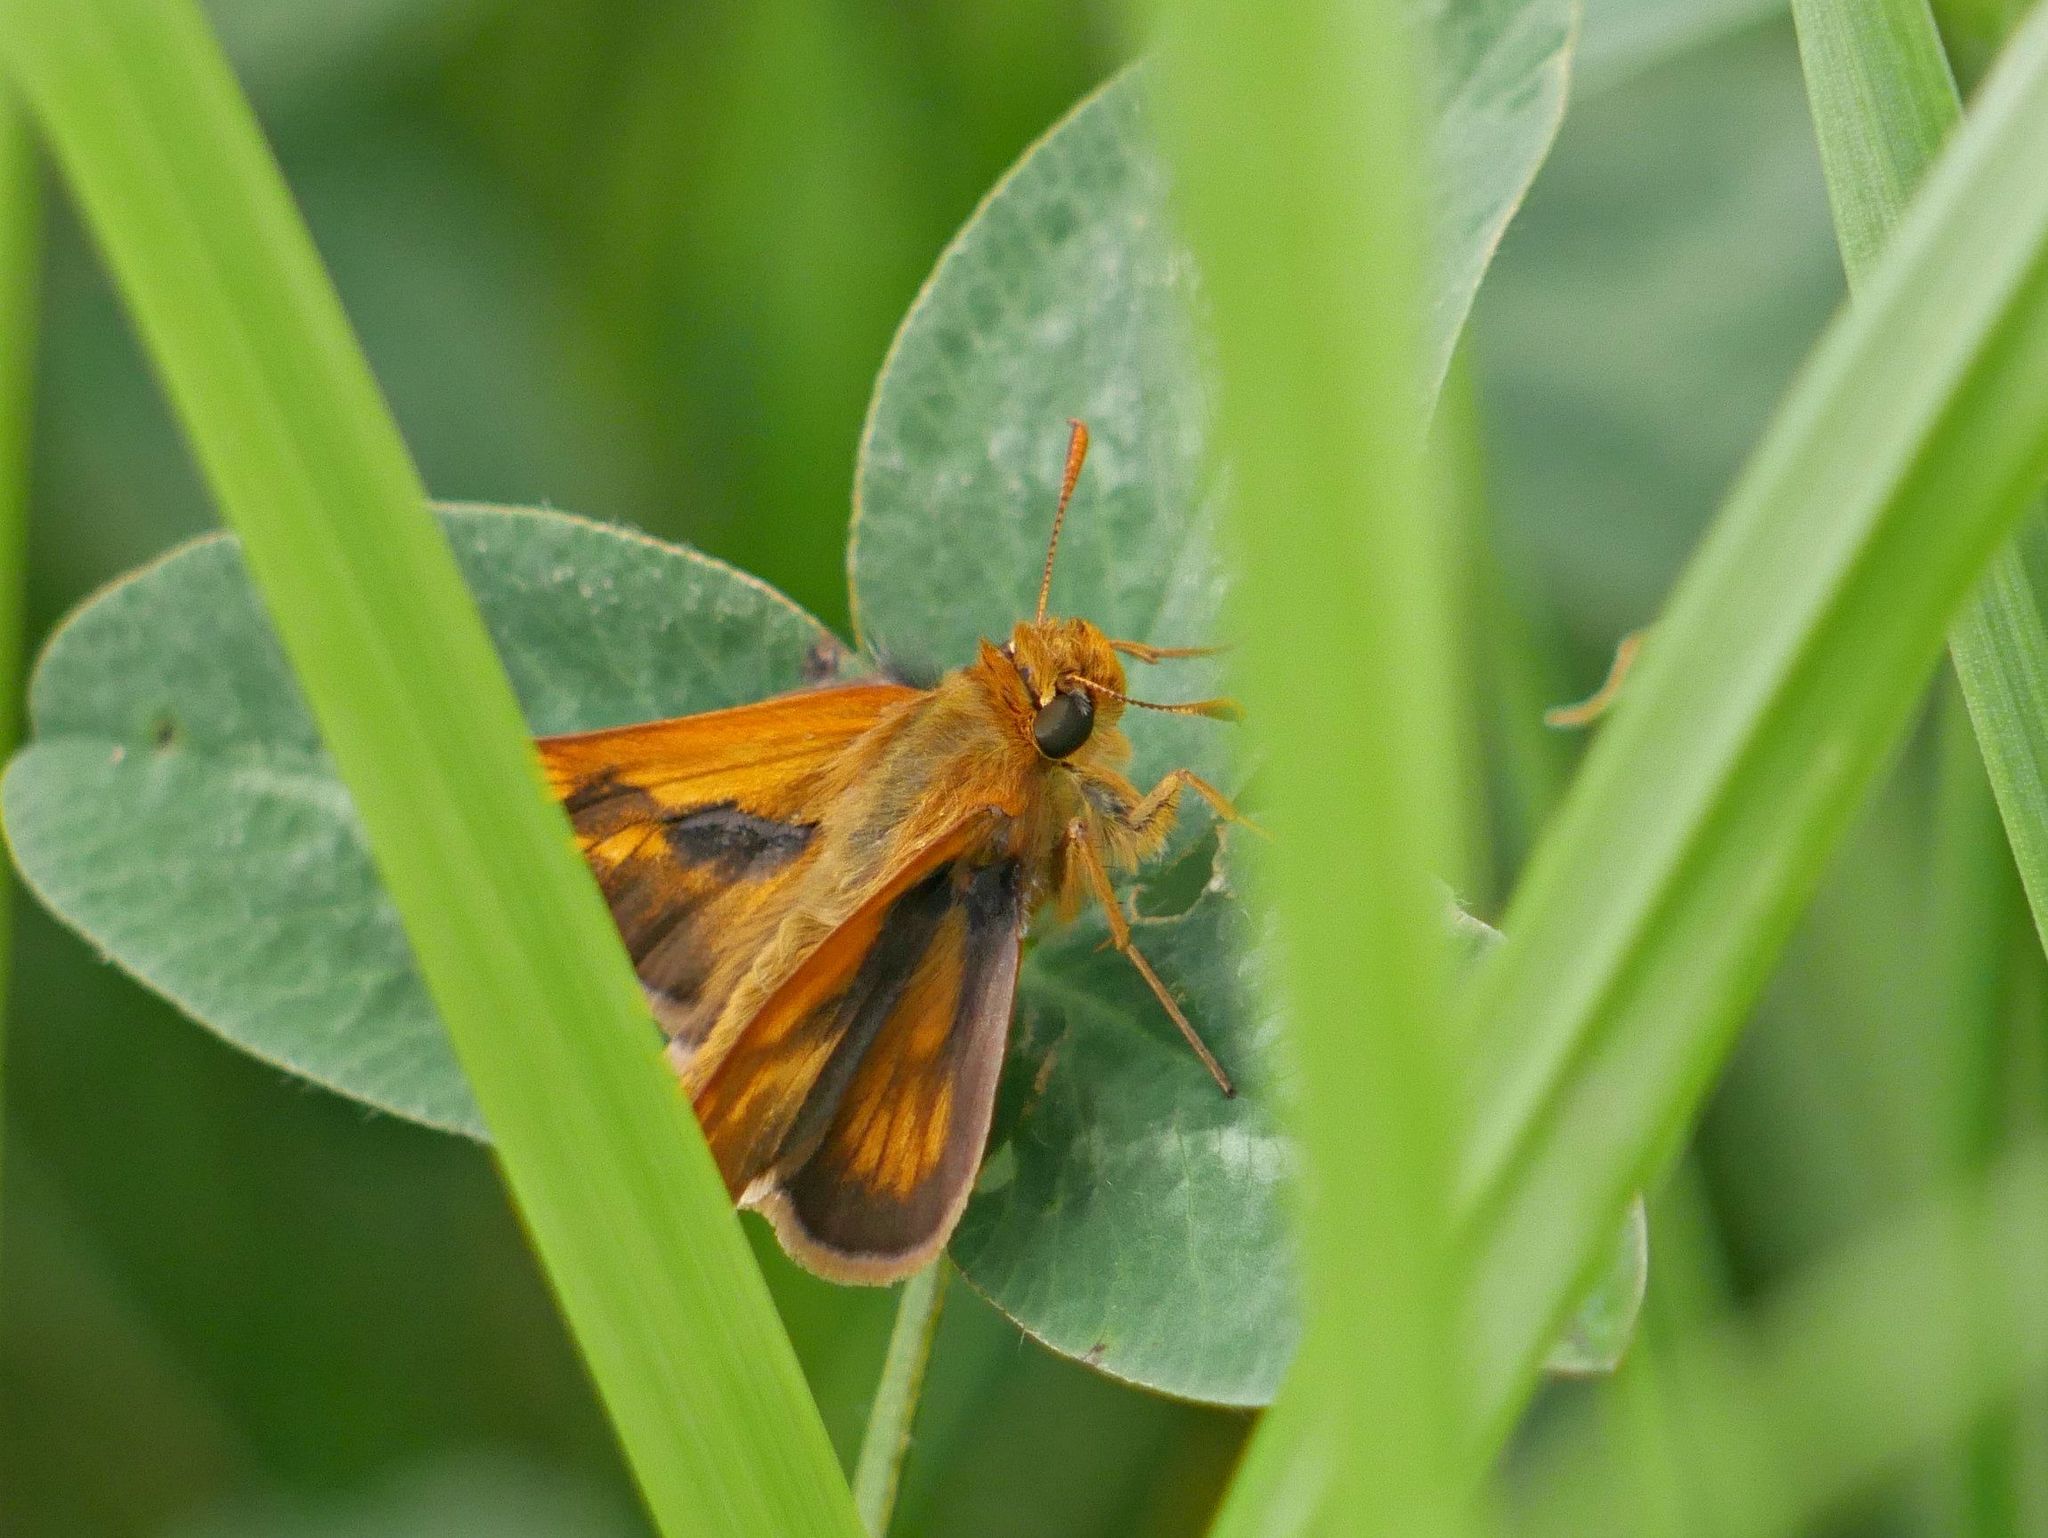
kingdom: Animalia
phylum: Arthropoda
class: Insecta
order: Lepidoptera
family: Hesperiidae
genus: Polites
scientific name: Polites mystic
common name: Long dash
